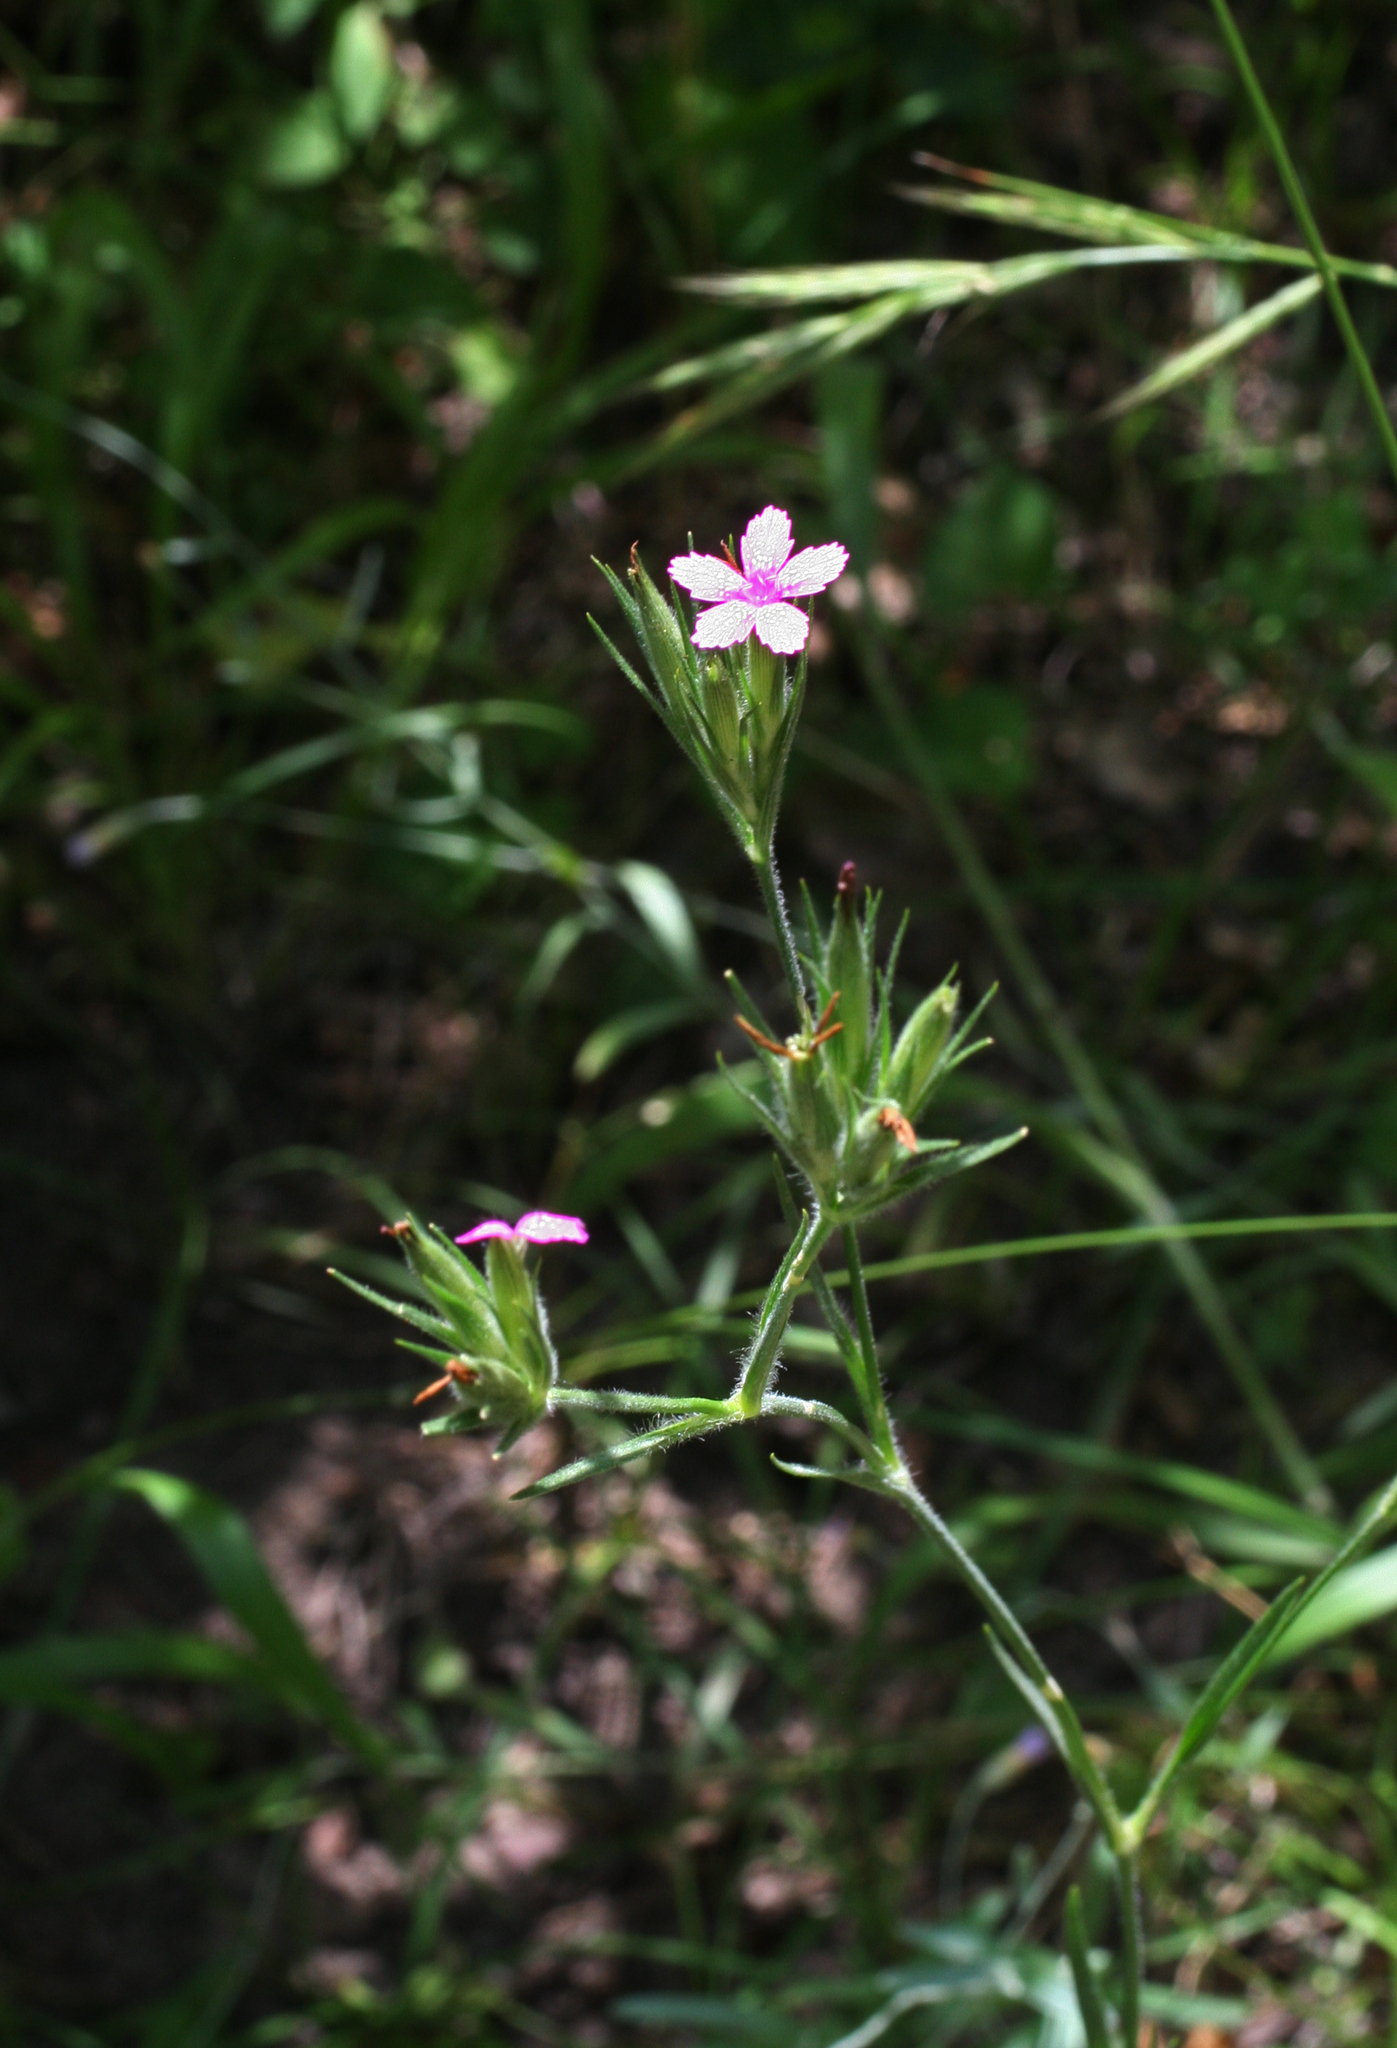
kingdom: Plantae
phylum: Tracheophyta
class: Magnoliopsida
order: Caryophyllales
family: Caryophyllaceae
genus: Dianthus
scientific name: Dianthus armeria
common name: Deptford pink
